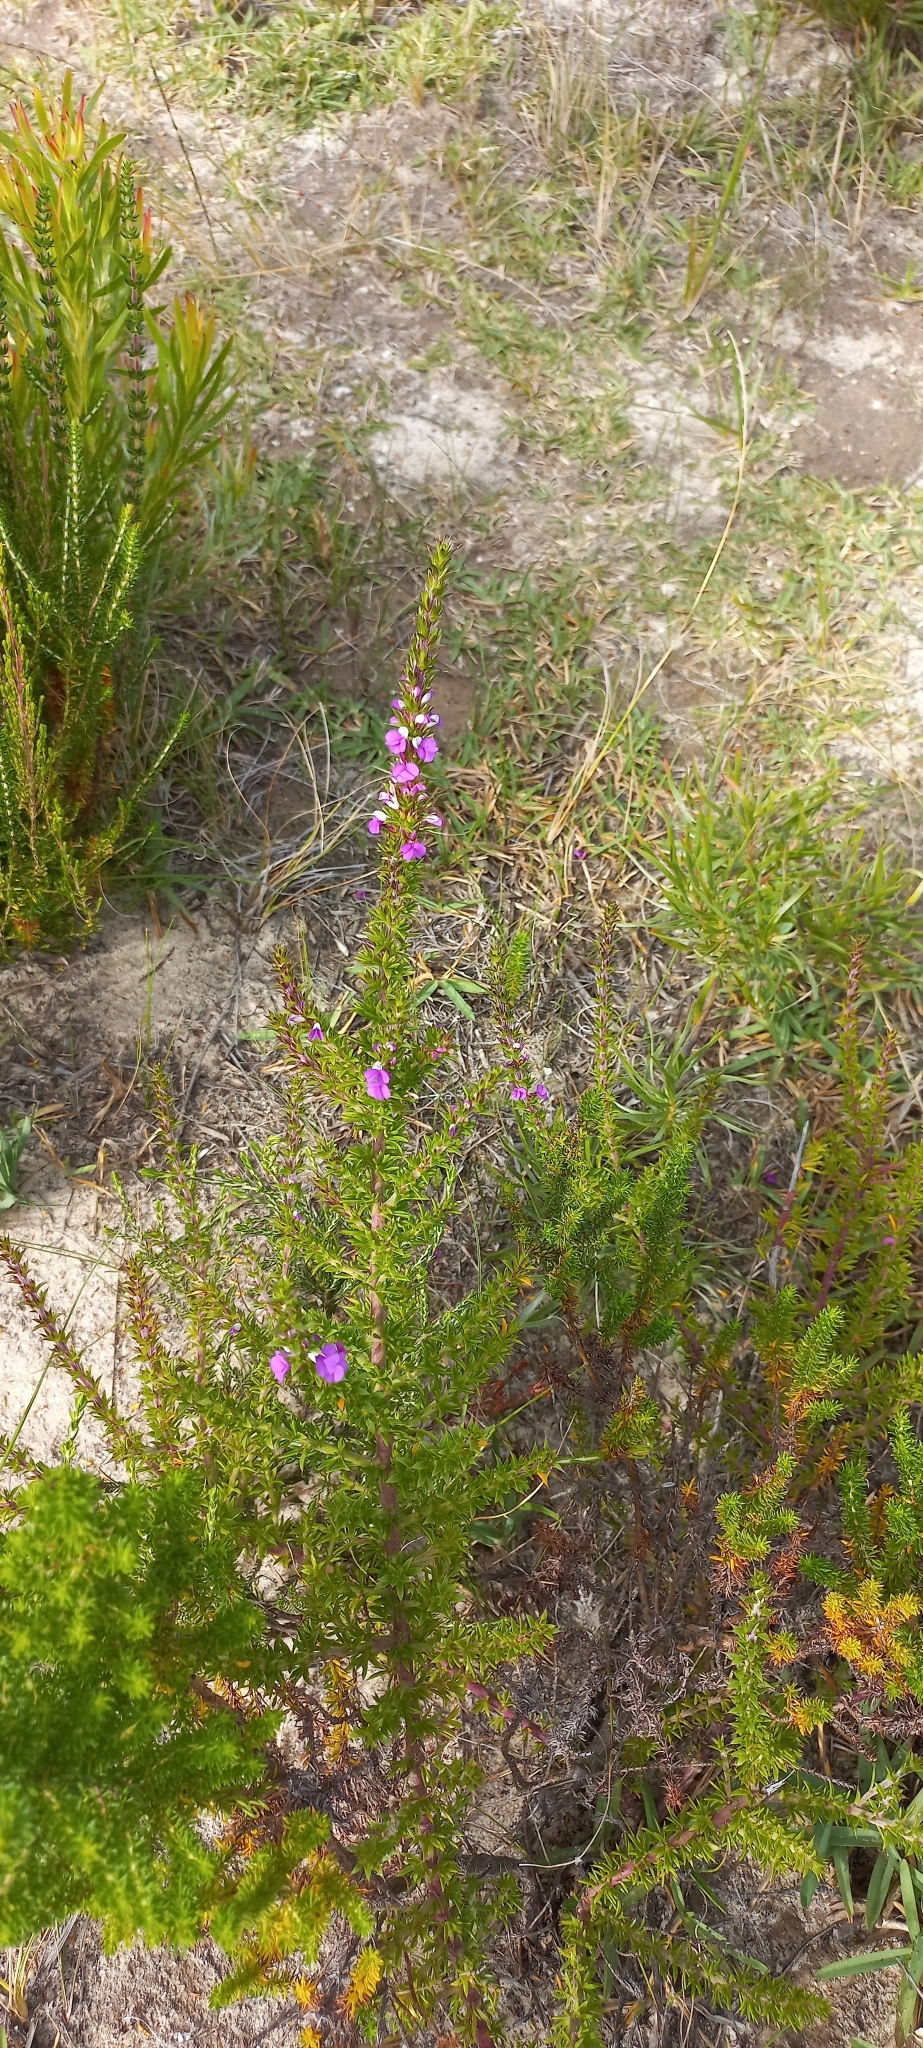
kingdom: Plantae
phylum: Tracheophyta
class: Magnoliopsida
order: Fabales
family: Polygalaceae
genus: Muraltia
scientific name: Muraltia heisteria
